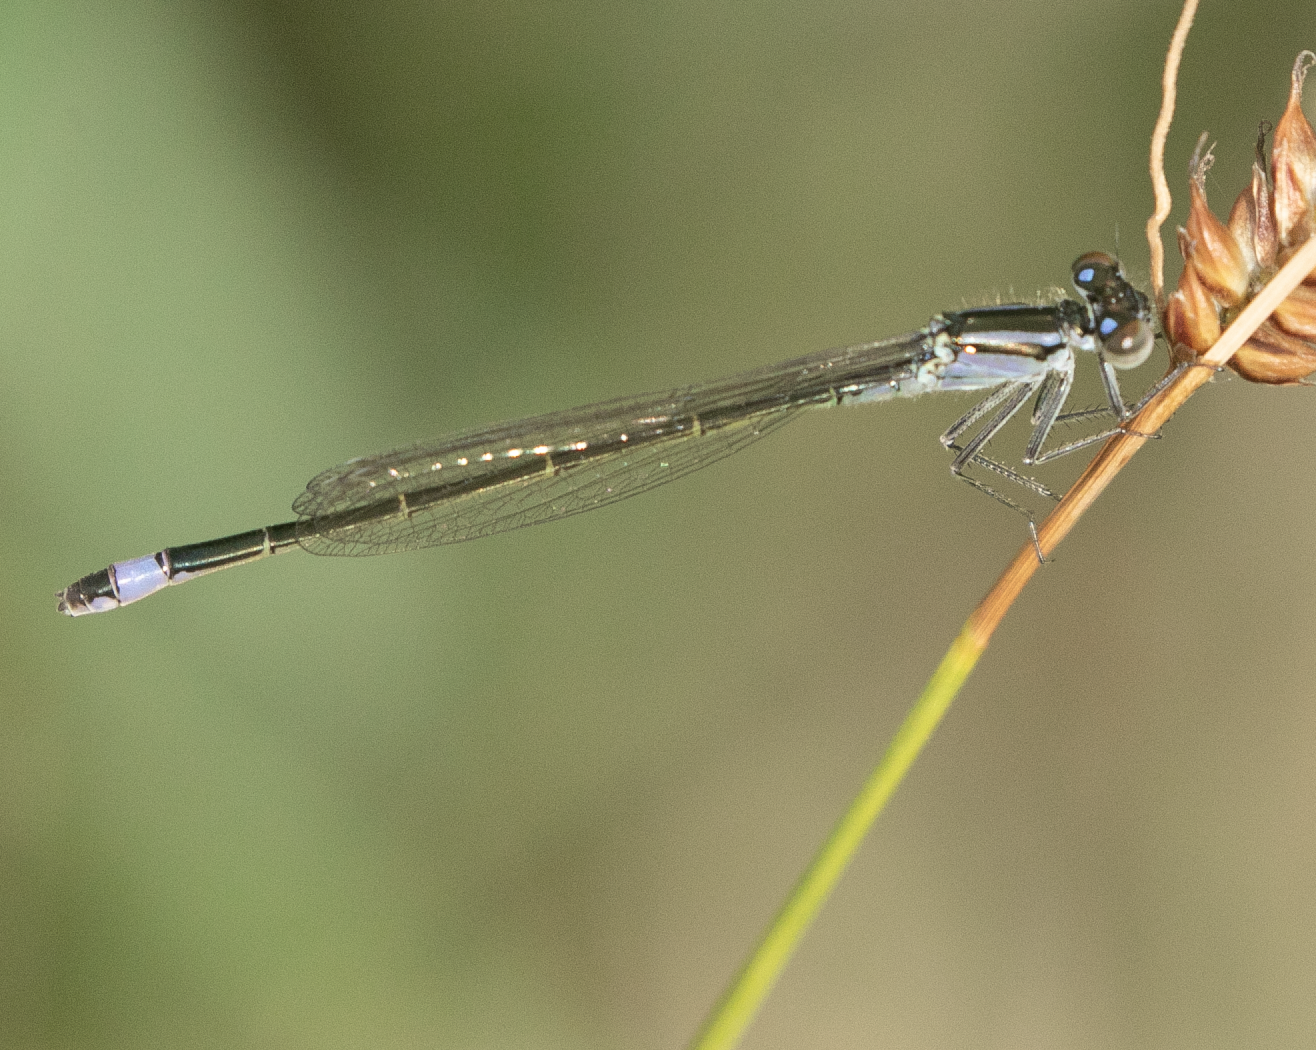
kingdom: Animalia
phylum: Arthropoda
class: Insecta
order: Odonata
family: Coenagrionidae
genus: Ischnura
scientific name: Ischnura elegans
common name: Blue-tailed damselfly
